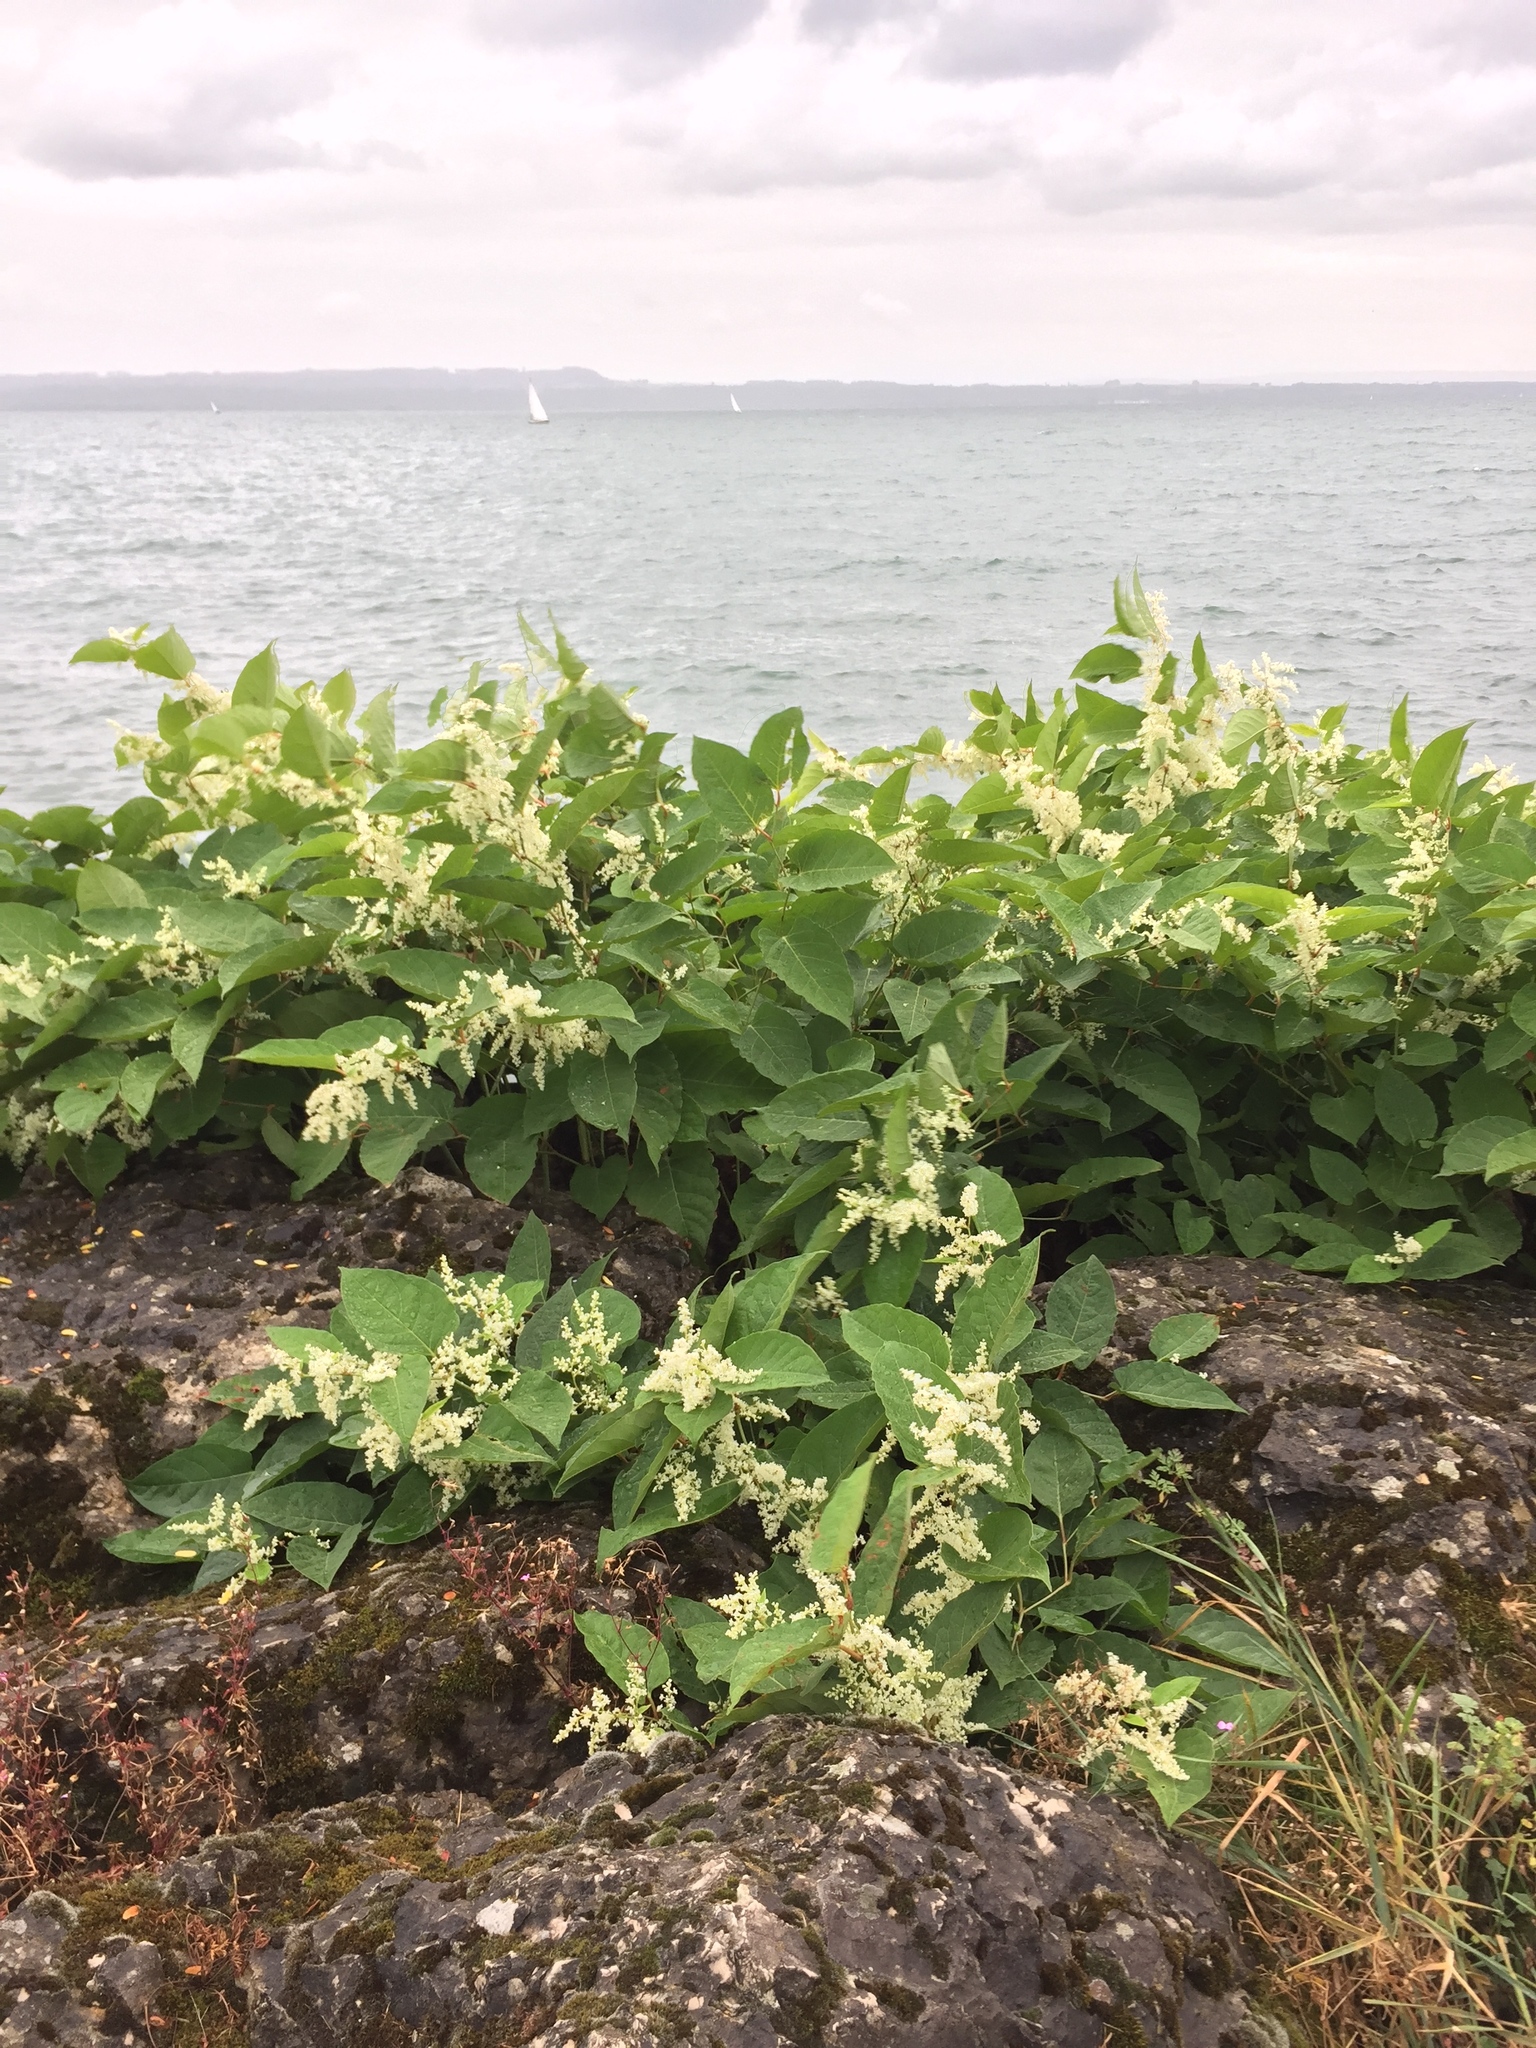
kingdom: Plantae
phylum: Tracheophyta
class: Magnoliopsida
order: Caryophyllales
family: Polygonaceae
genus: Reynoutria
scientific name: Reynoutria japonica
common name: Japanese knotweed
